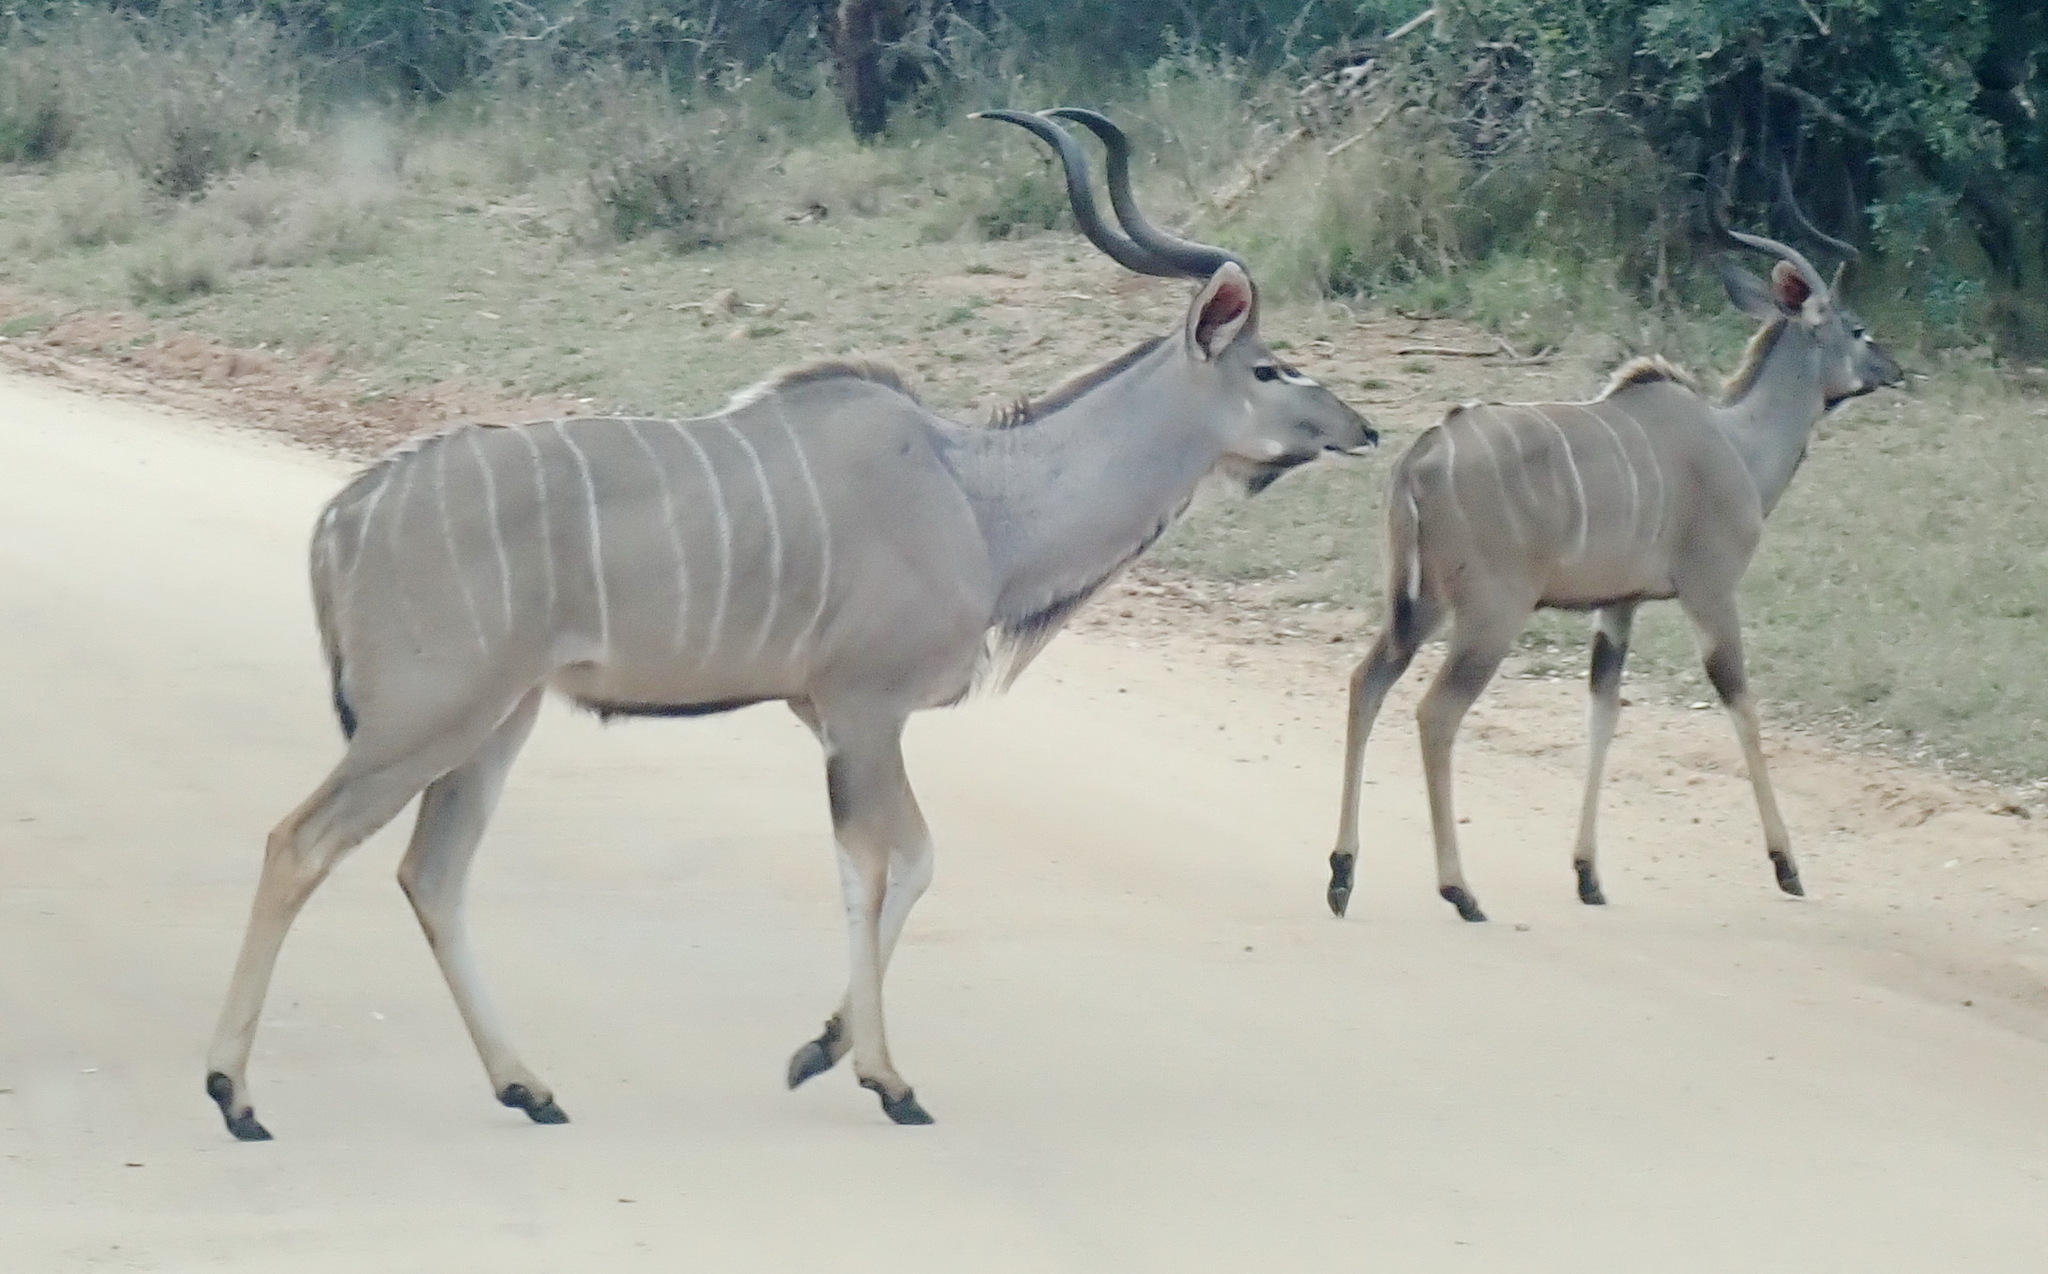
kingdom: Animalia
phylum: Chordata
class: Mammalia
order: Artiodactyla
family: Bovidae
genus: Tragelaphus
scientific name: Tragelaphus strepsiceros
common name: Greater kudu
